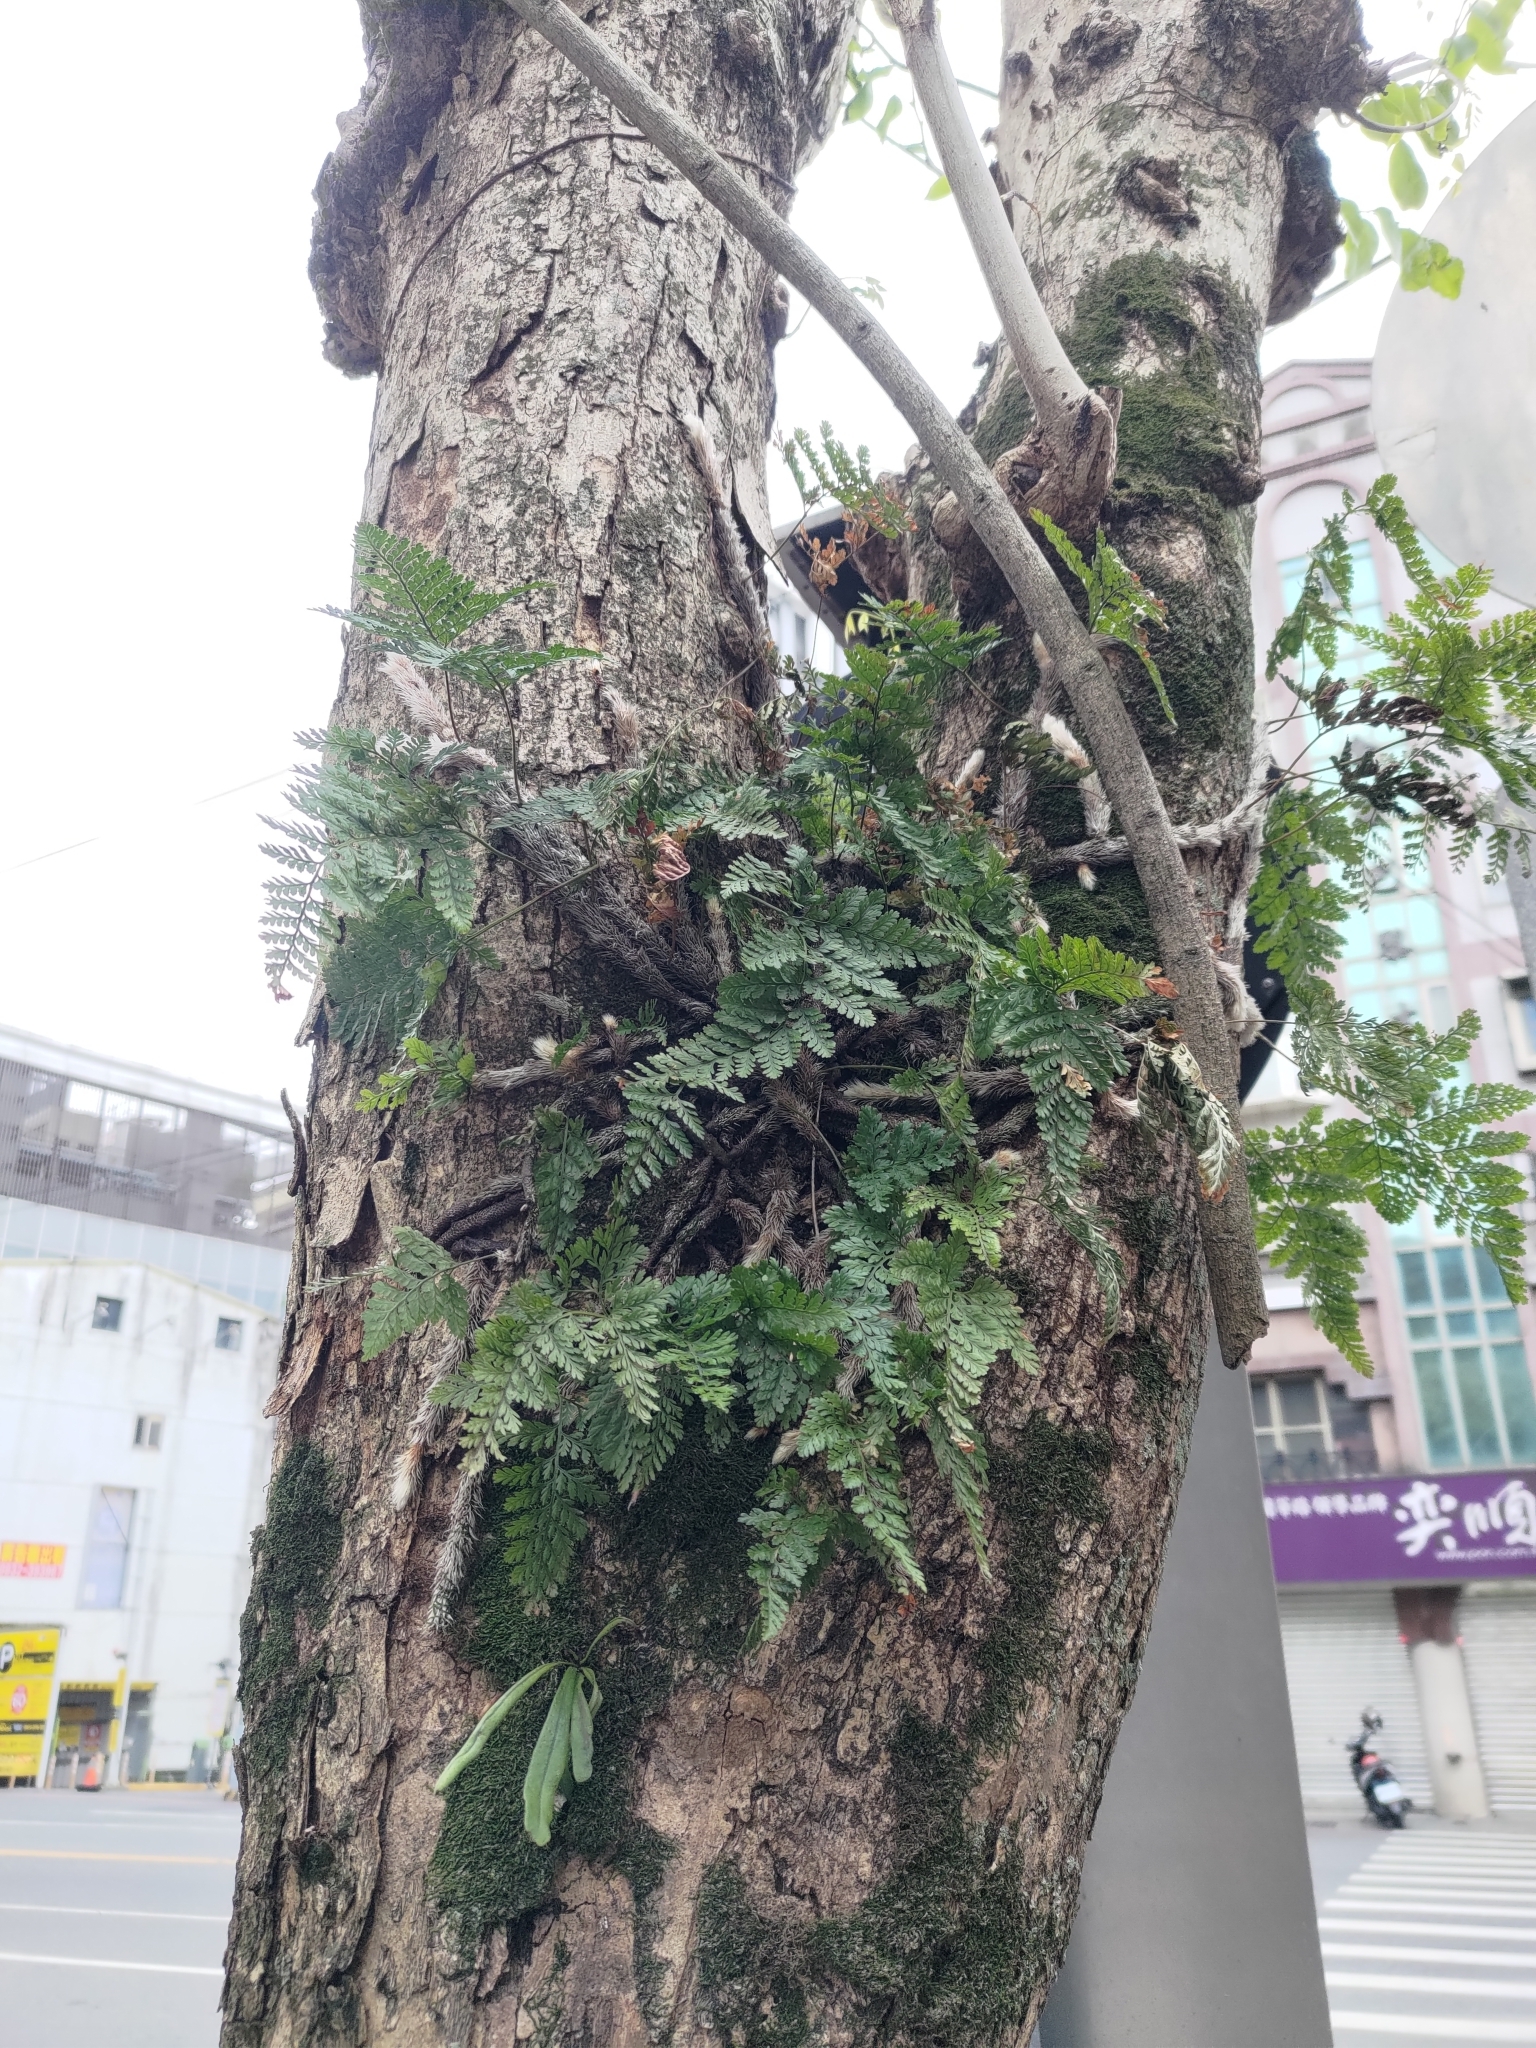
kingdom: Plantae
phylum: Tracheophyta
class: Polypodiopsida
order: Polypodiales
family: Davalliaceae
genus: Davallia
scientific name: Davallia griffithiana
